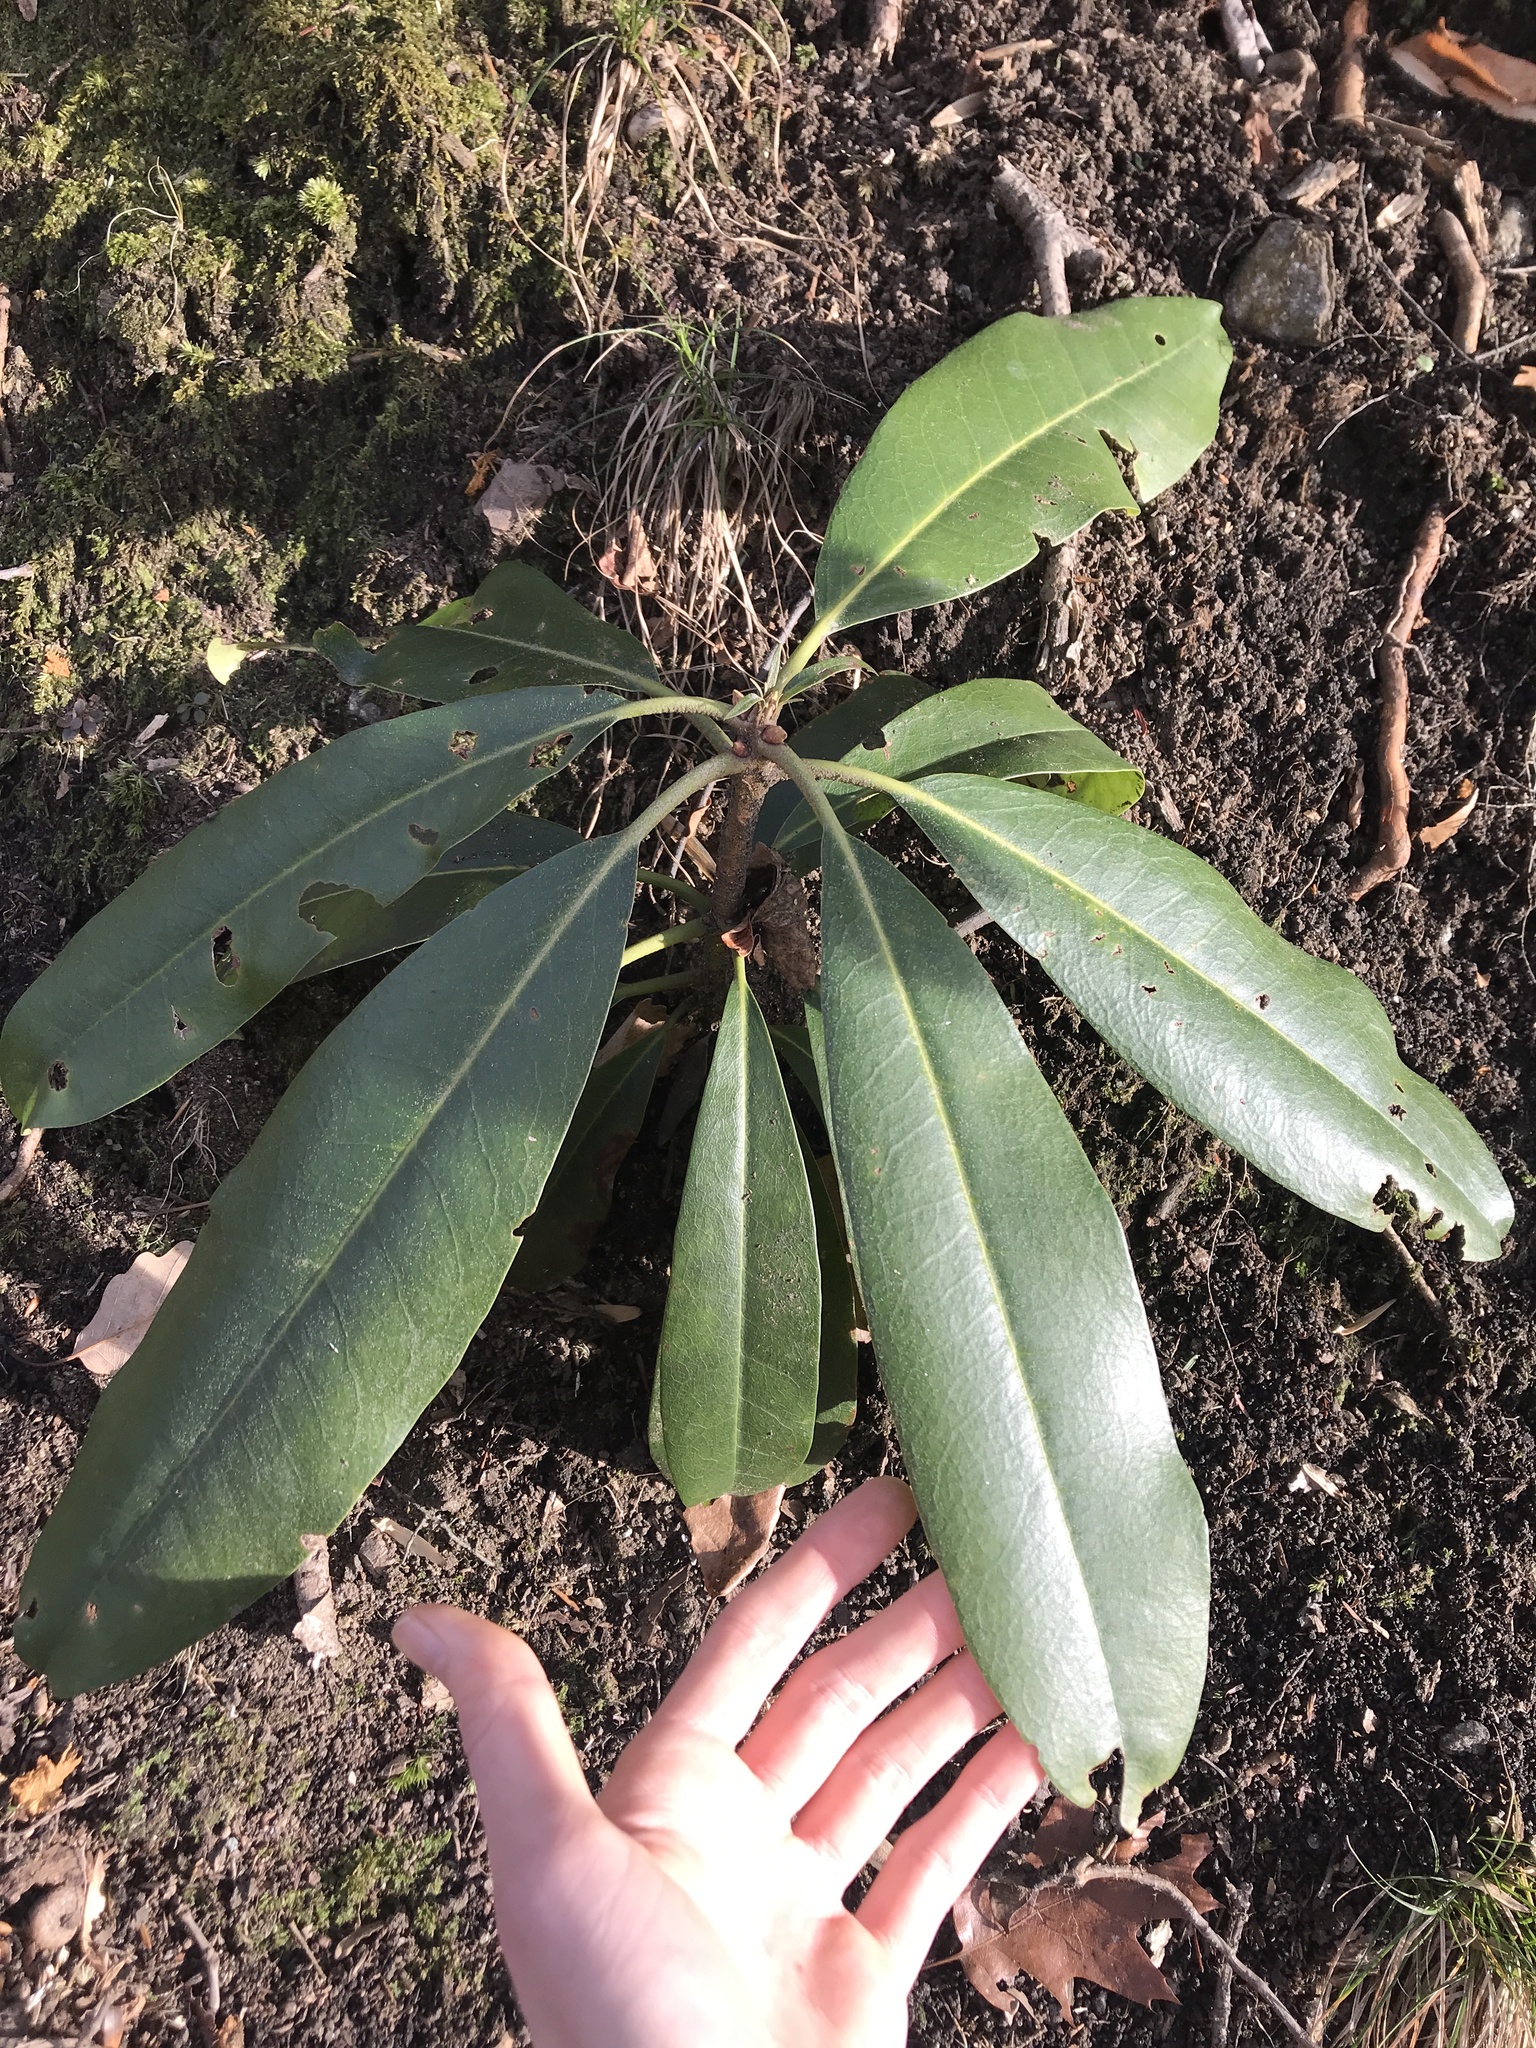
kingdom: Plantae
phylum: Tracheophyta
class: Magnoliopsida
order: Ericales
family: Ericaceae
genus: Rhododendron
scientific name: Rhododendron maximum
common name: Great rhododendron
